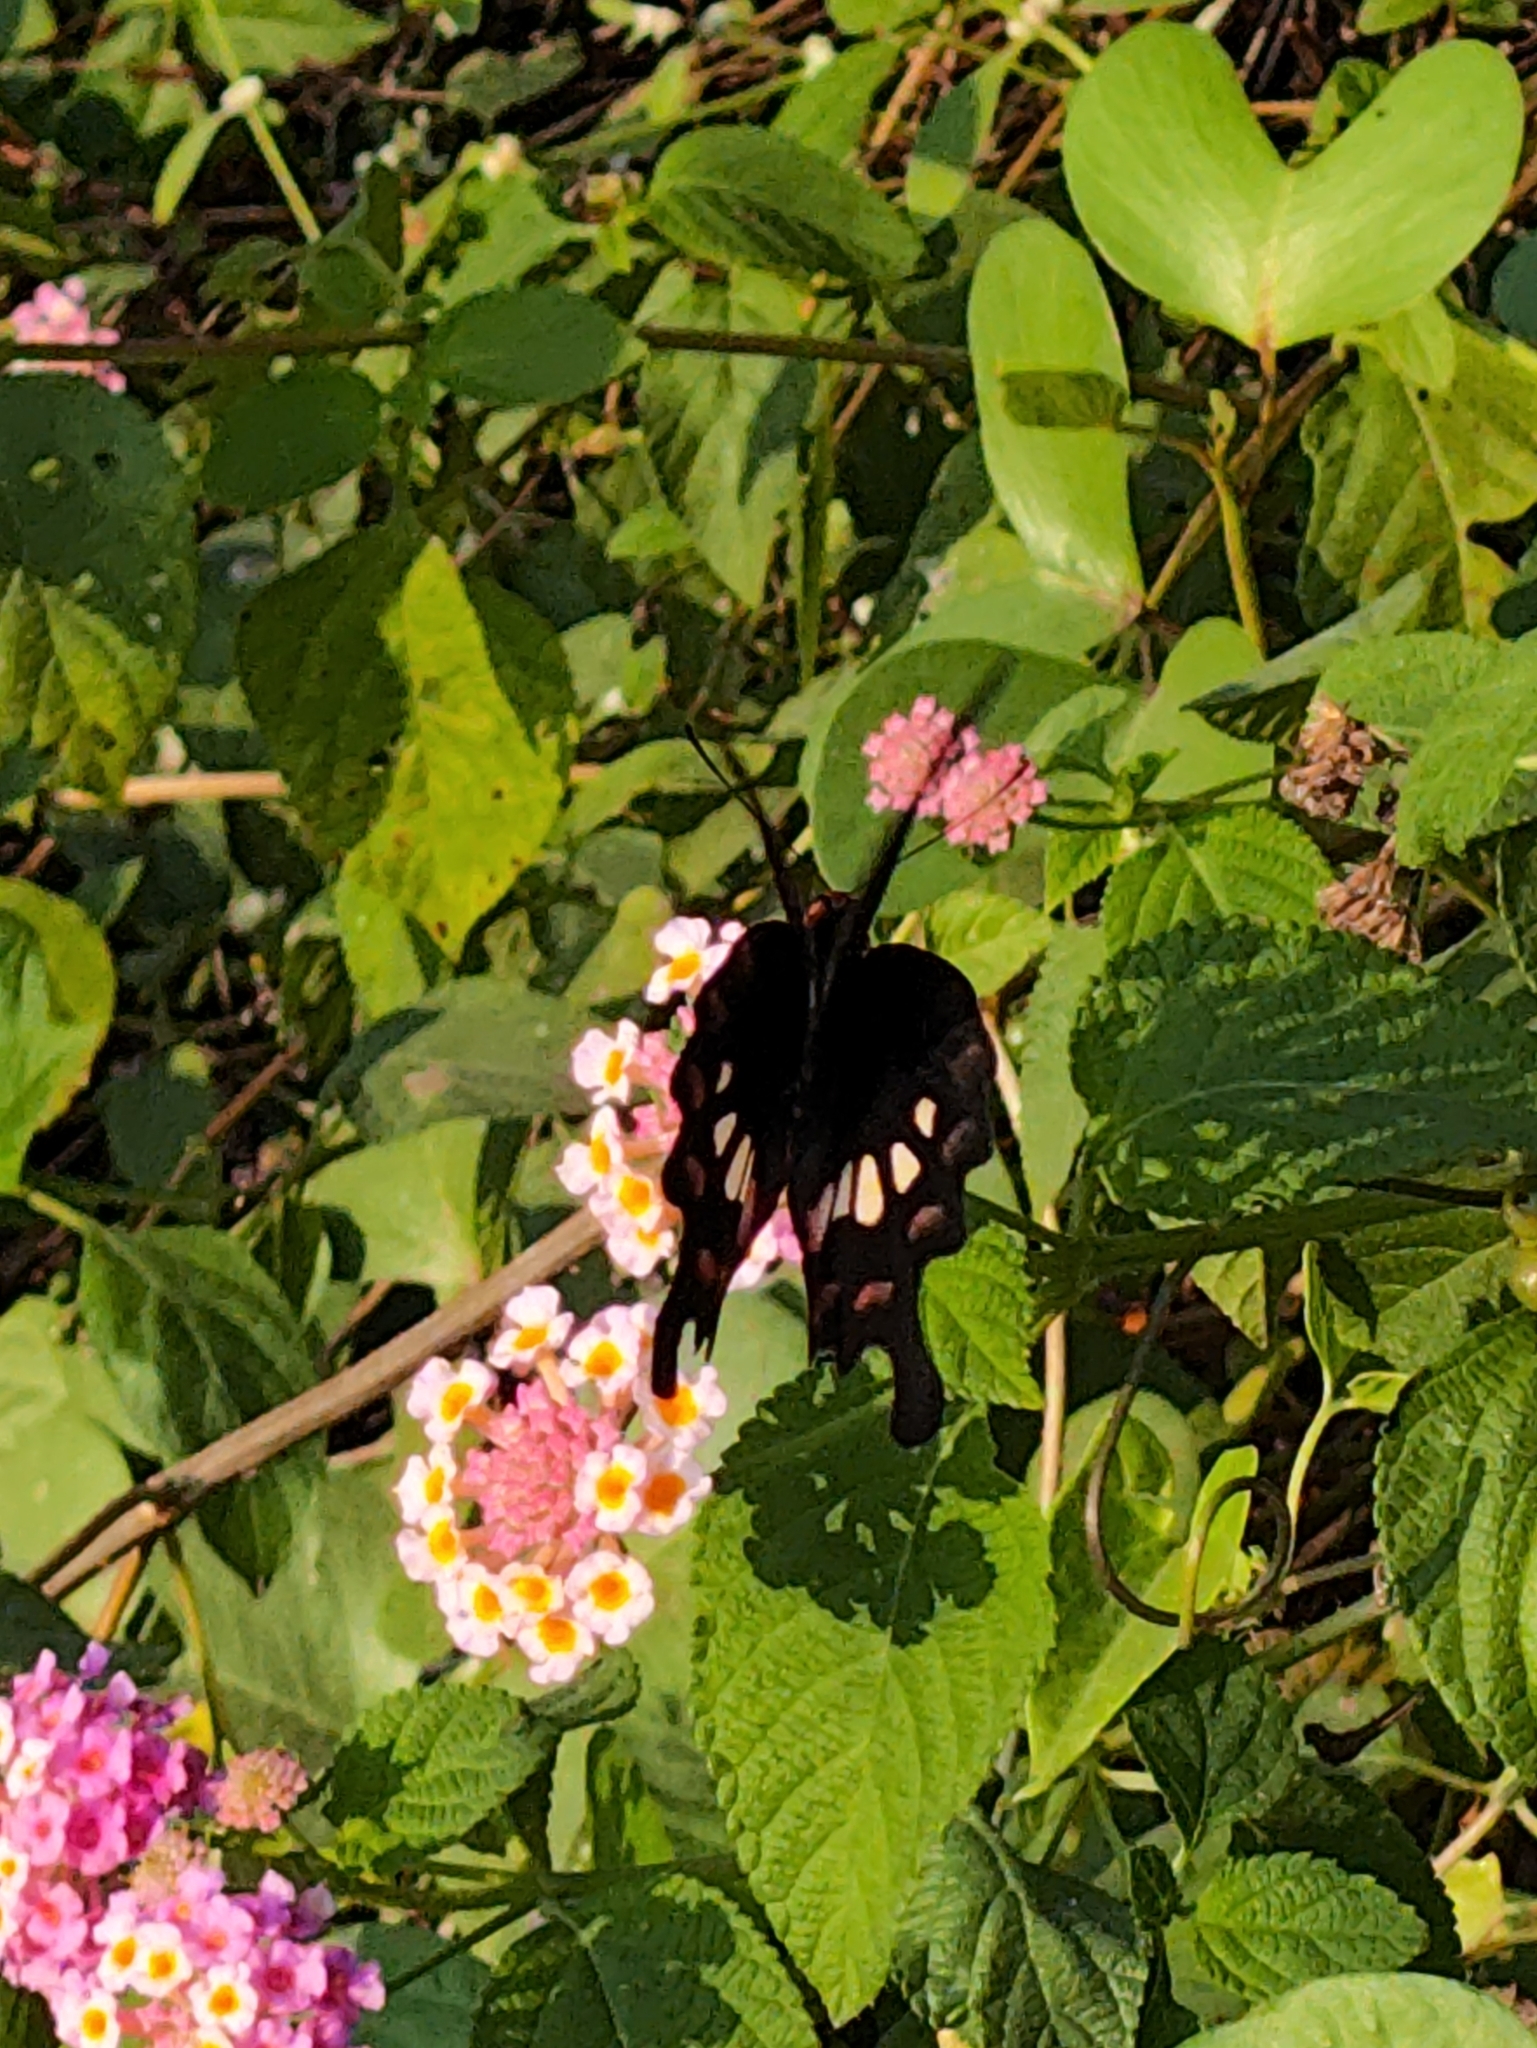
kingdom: Animalia
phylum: Arthropoda
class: Insecta
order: Lepidoptera
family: Papilionidae
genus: Pachliopta
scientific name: Pachliopta aristolochiae
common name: Common rose
